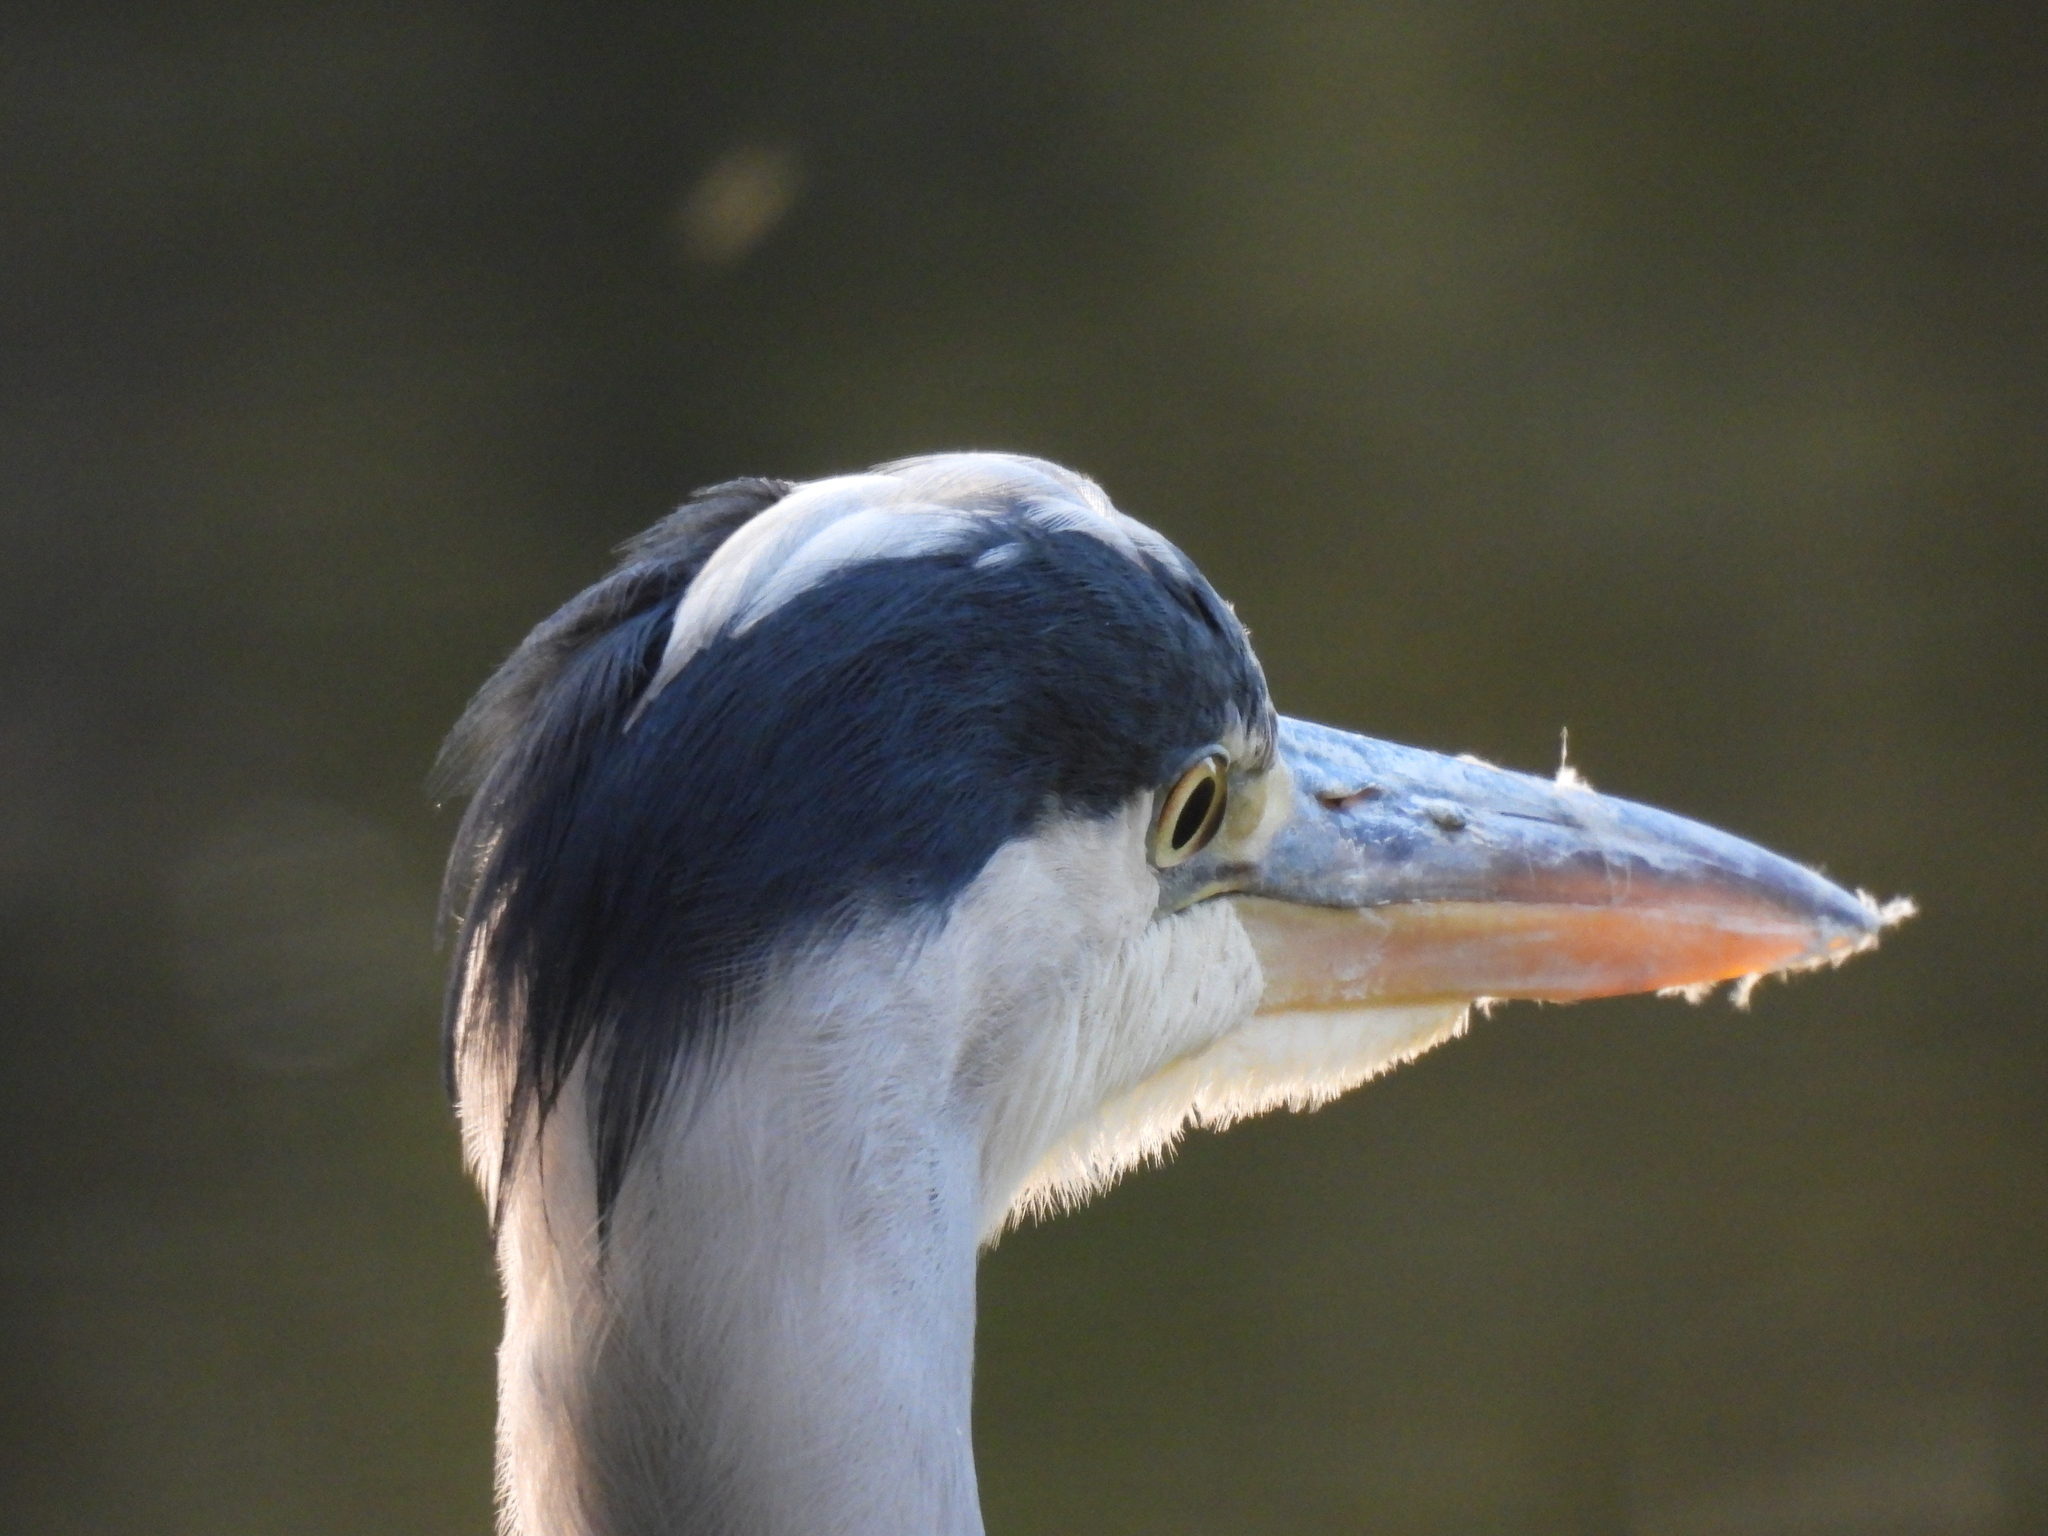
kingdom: Animalia
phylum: Chordata
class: Aves
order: Pelecaniformes
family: Ardeidae
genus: Ardea
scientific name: Ardea cinerea
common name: Grey heron
